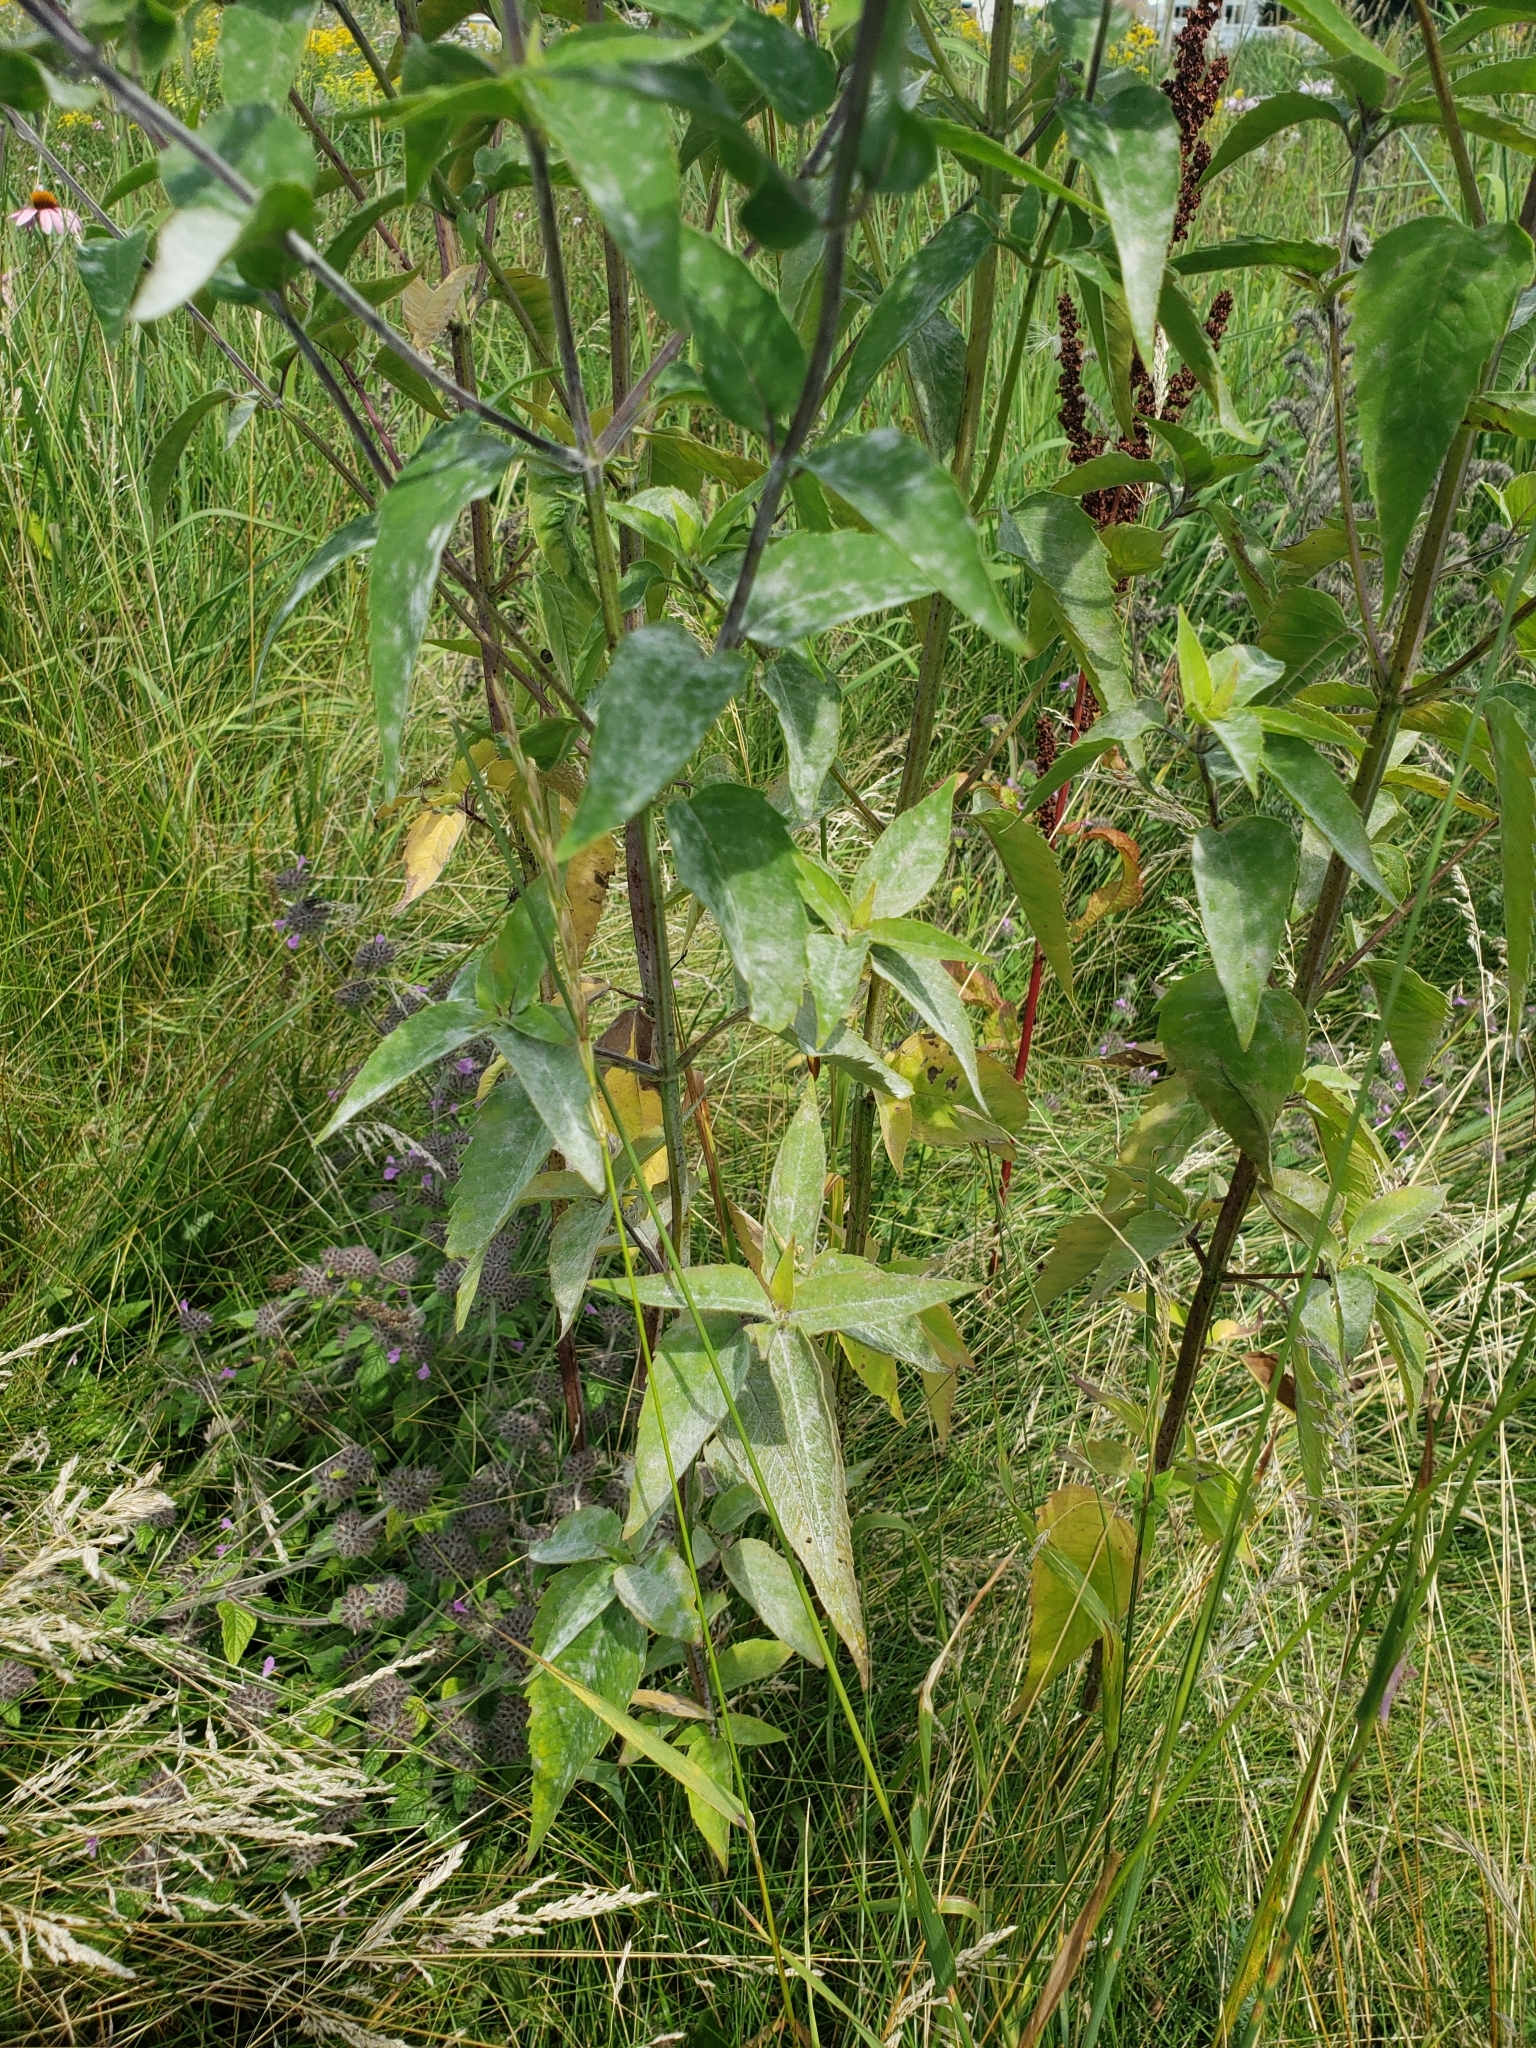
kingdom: Plantae
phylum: Tracheophyta
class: Magnoliopsida
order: Lamiales
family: Lamiaceae
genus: Monarda
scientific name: Monarda fistulosa
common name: Purple beebalm
